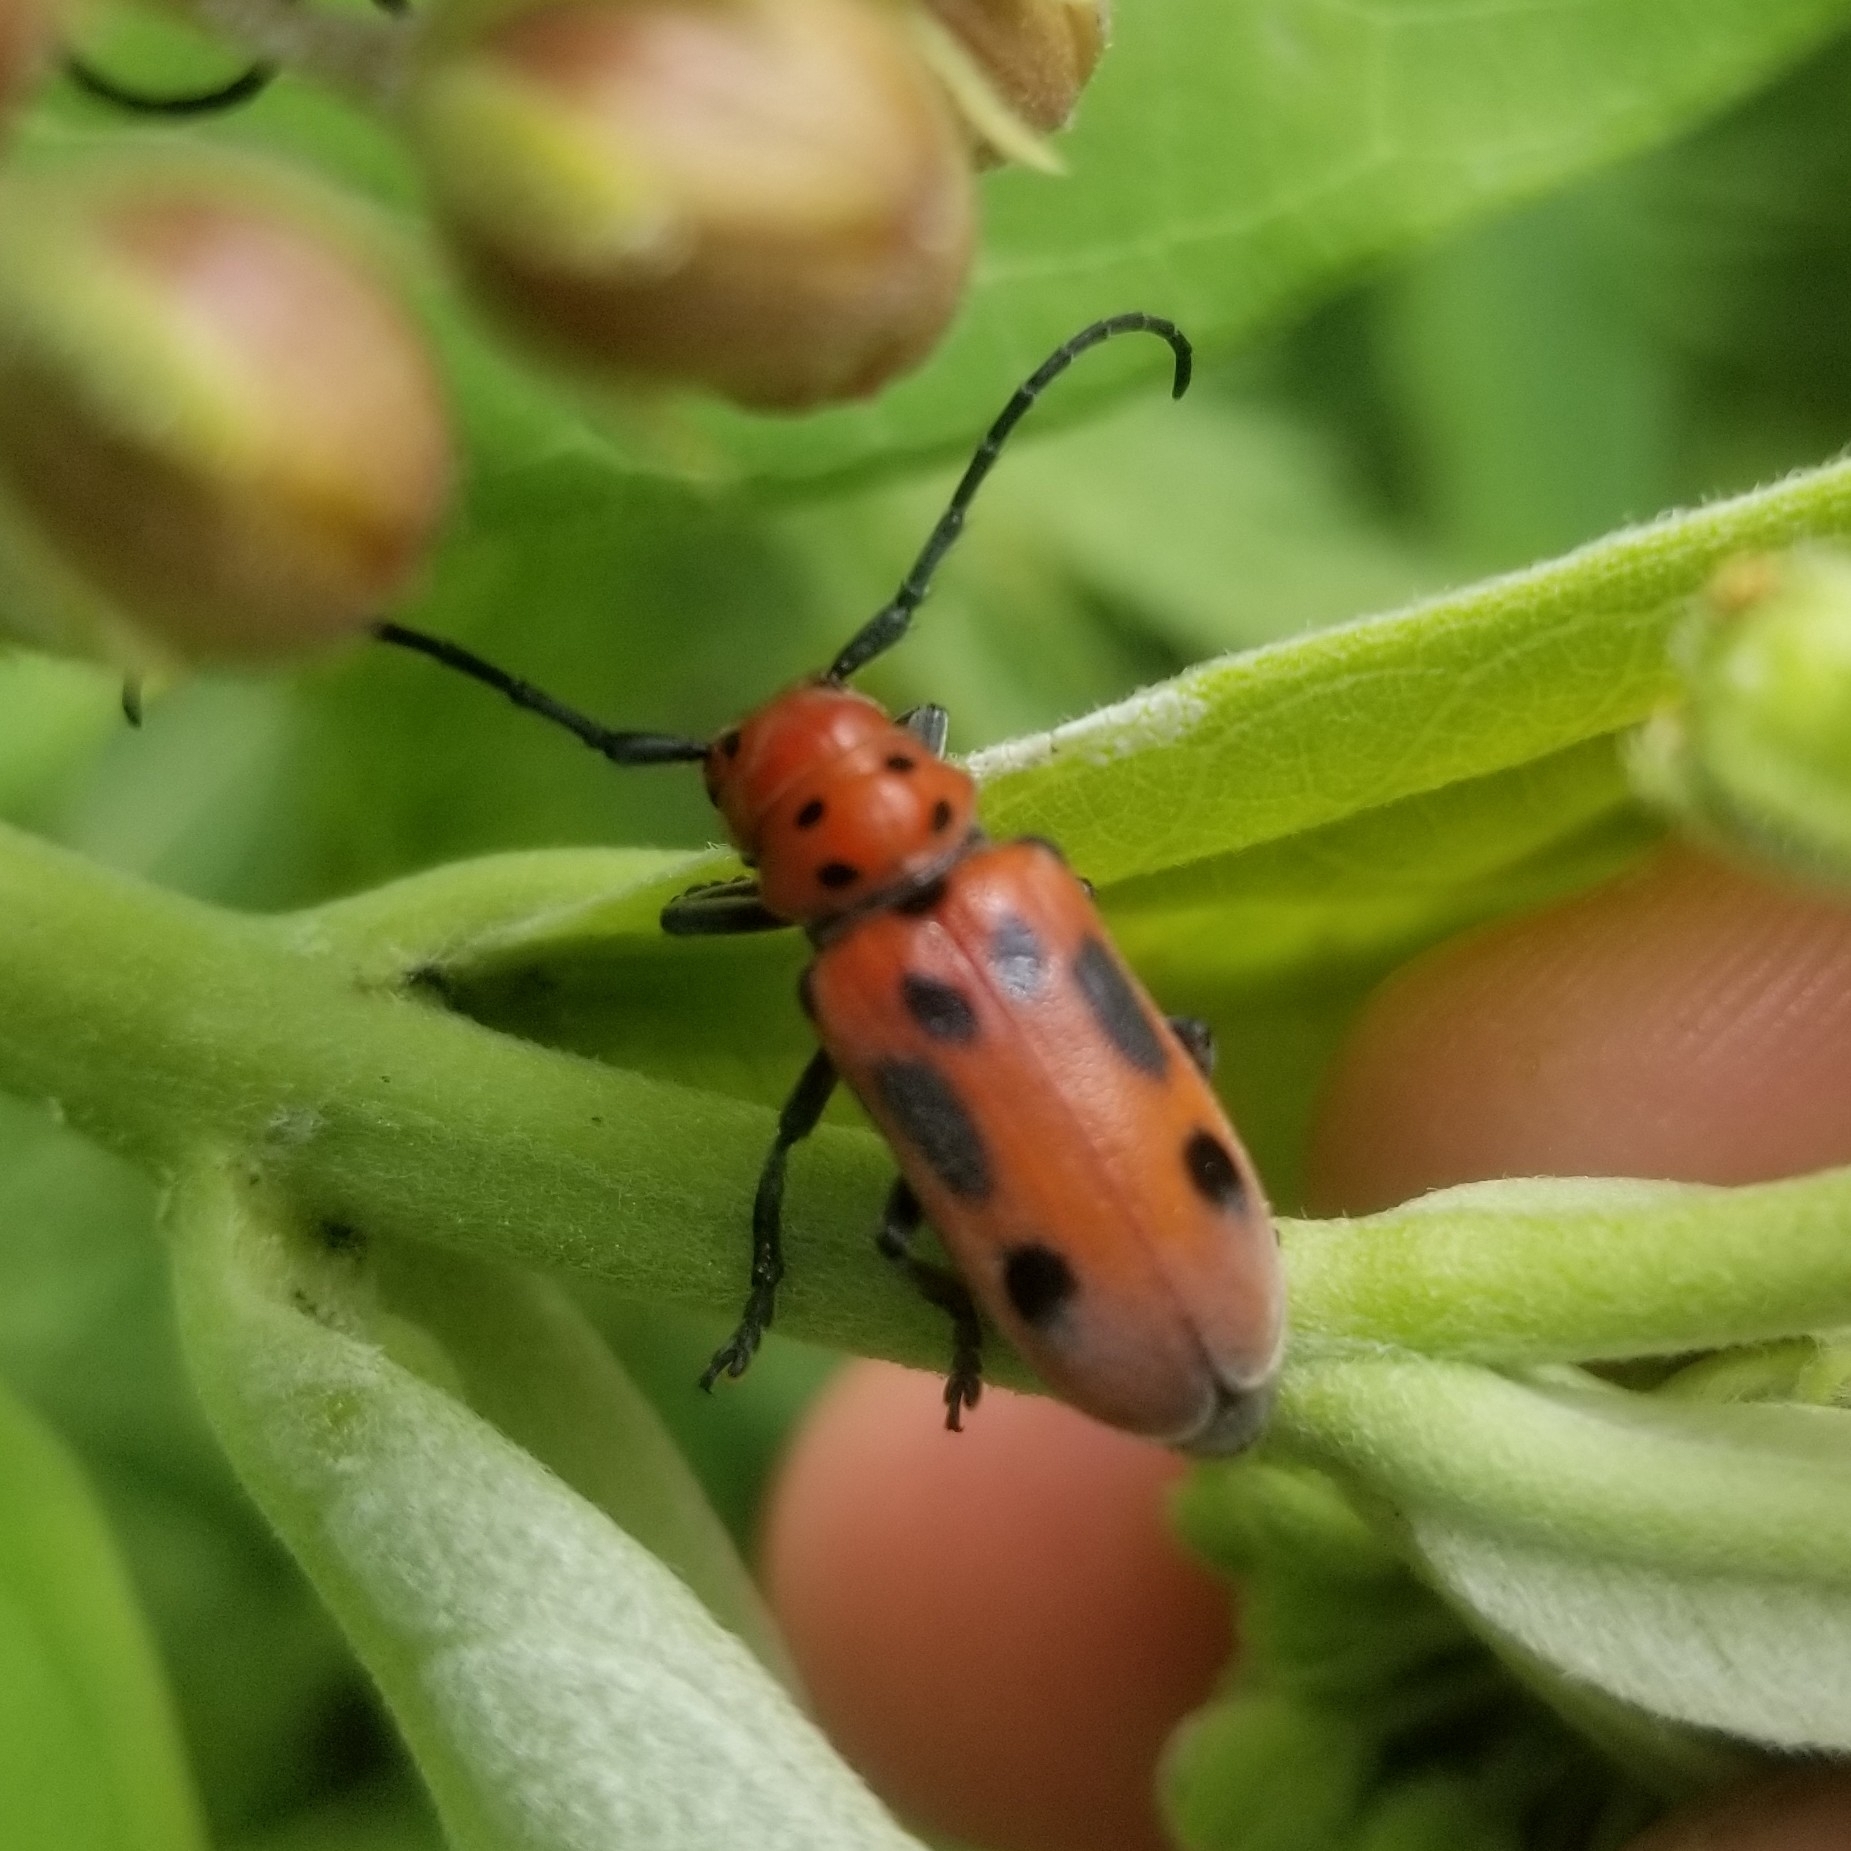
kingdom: Animalia
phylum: Arthropoda
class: Insecta
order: Coleoptera
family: Cerambycidae
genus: Tetraopes
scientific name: Tetraopes tetrophthalmus
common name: Red milkweed beetle
